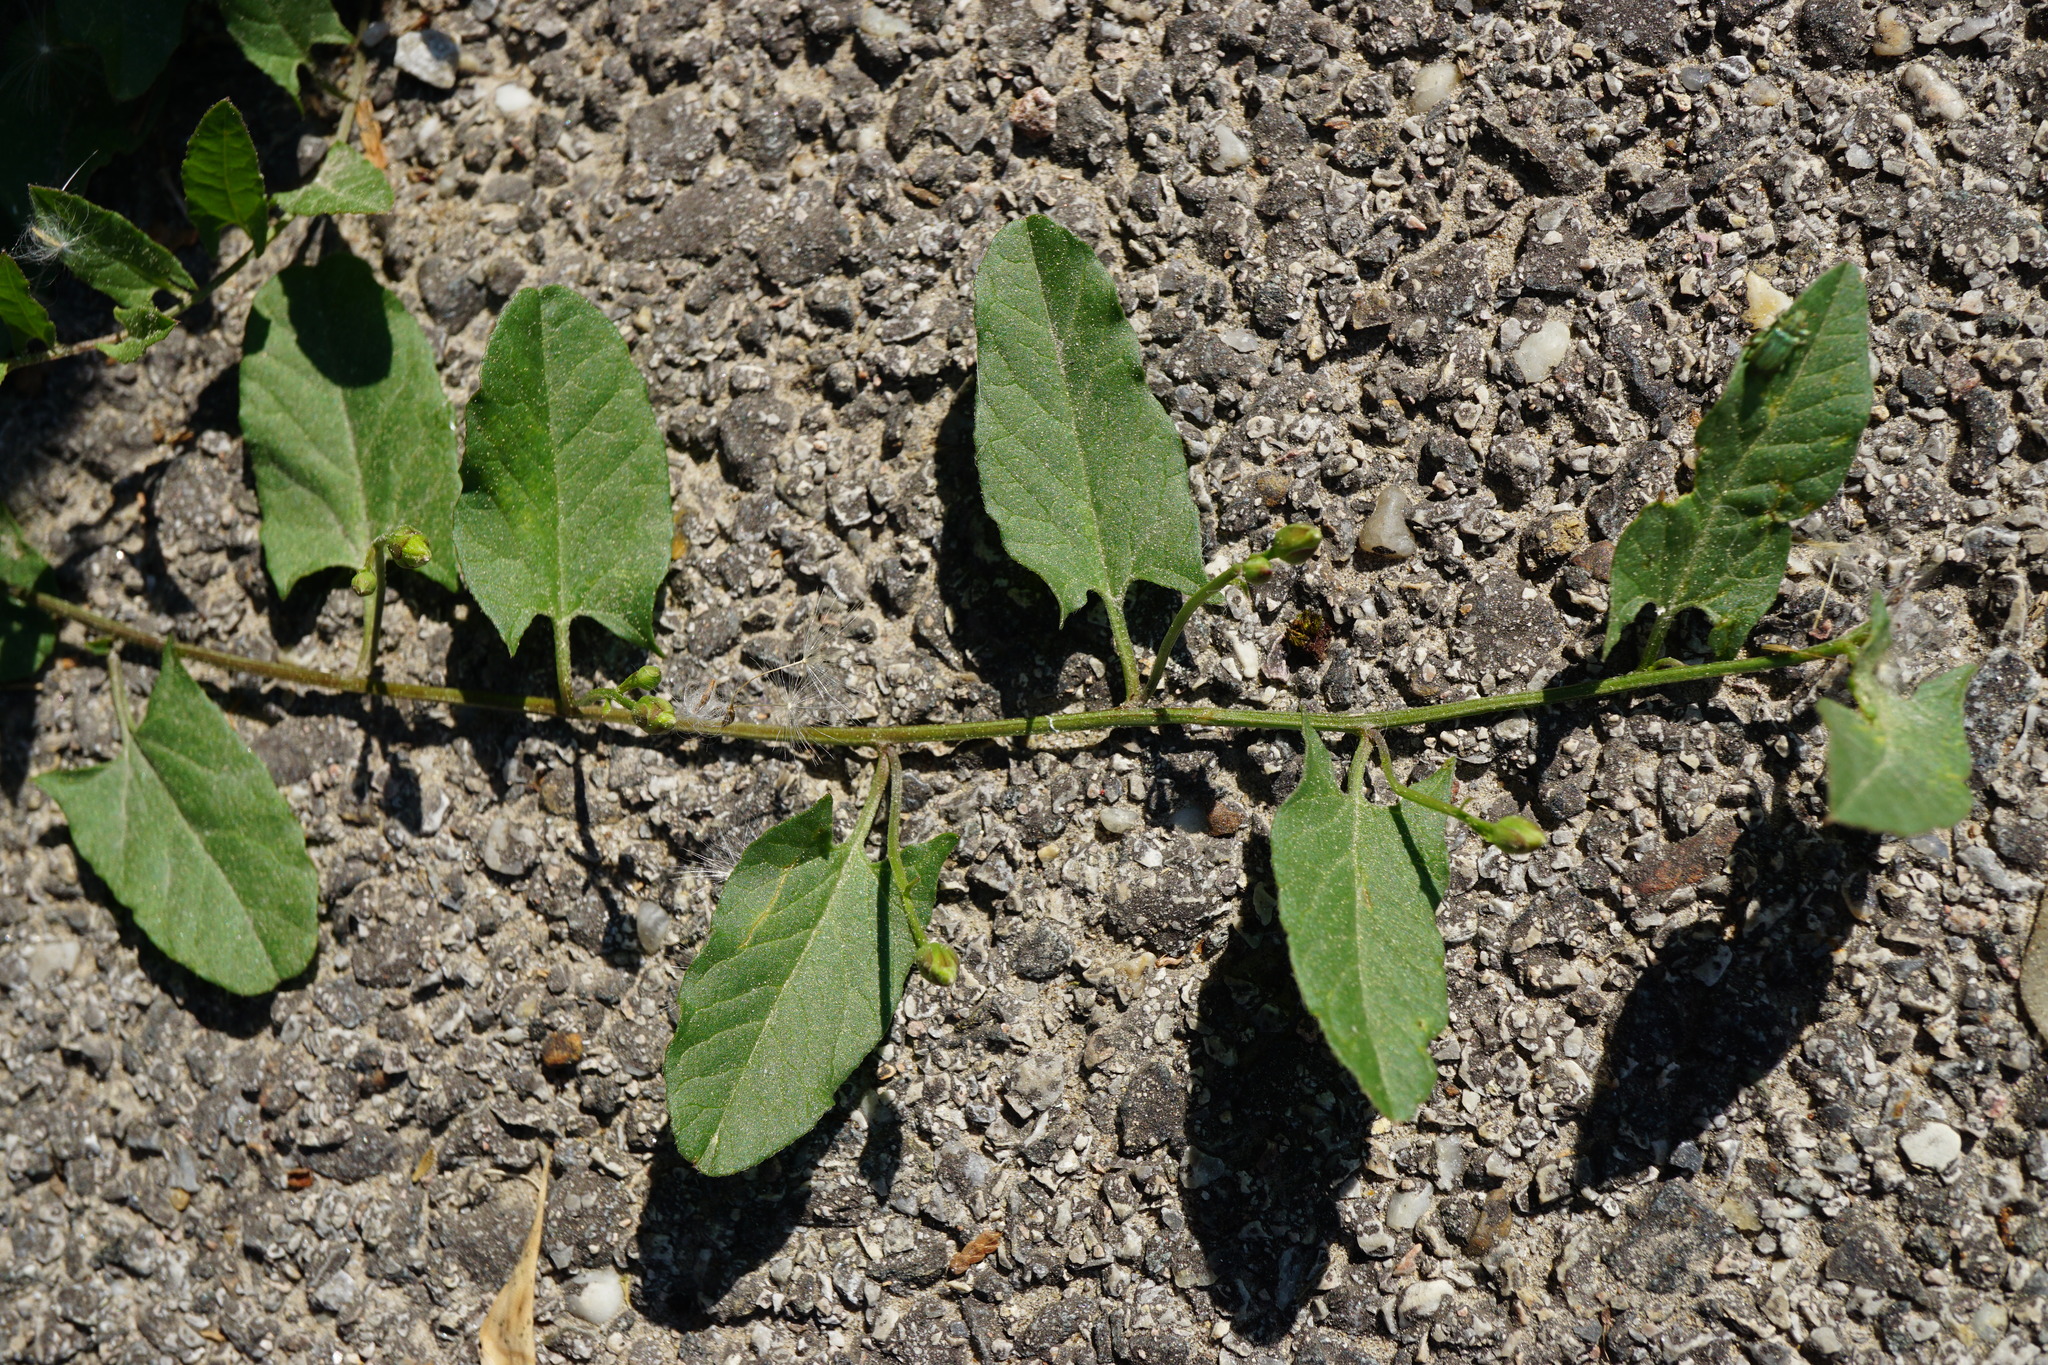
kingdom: Plantae
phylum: Tracheophyta
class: Magnoliopsida
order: Solanales
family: Convolvulaceae
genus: Convolvulus
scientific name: Convolvulus arvensis
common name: Field bindweed
